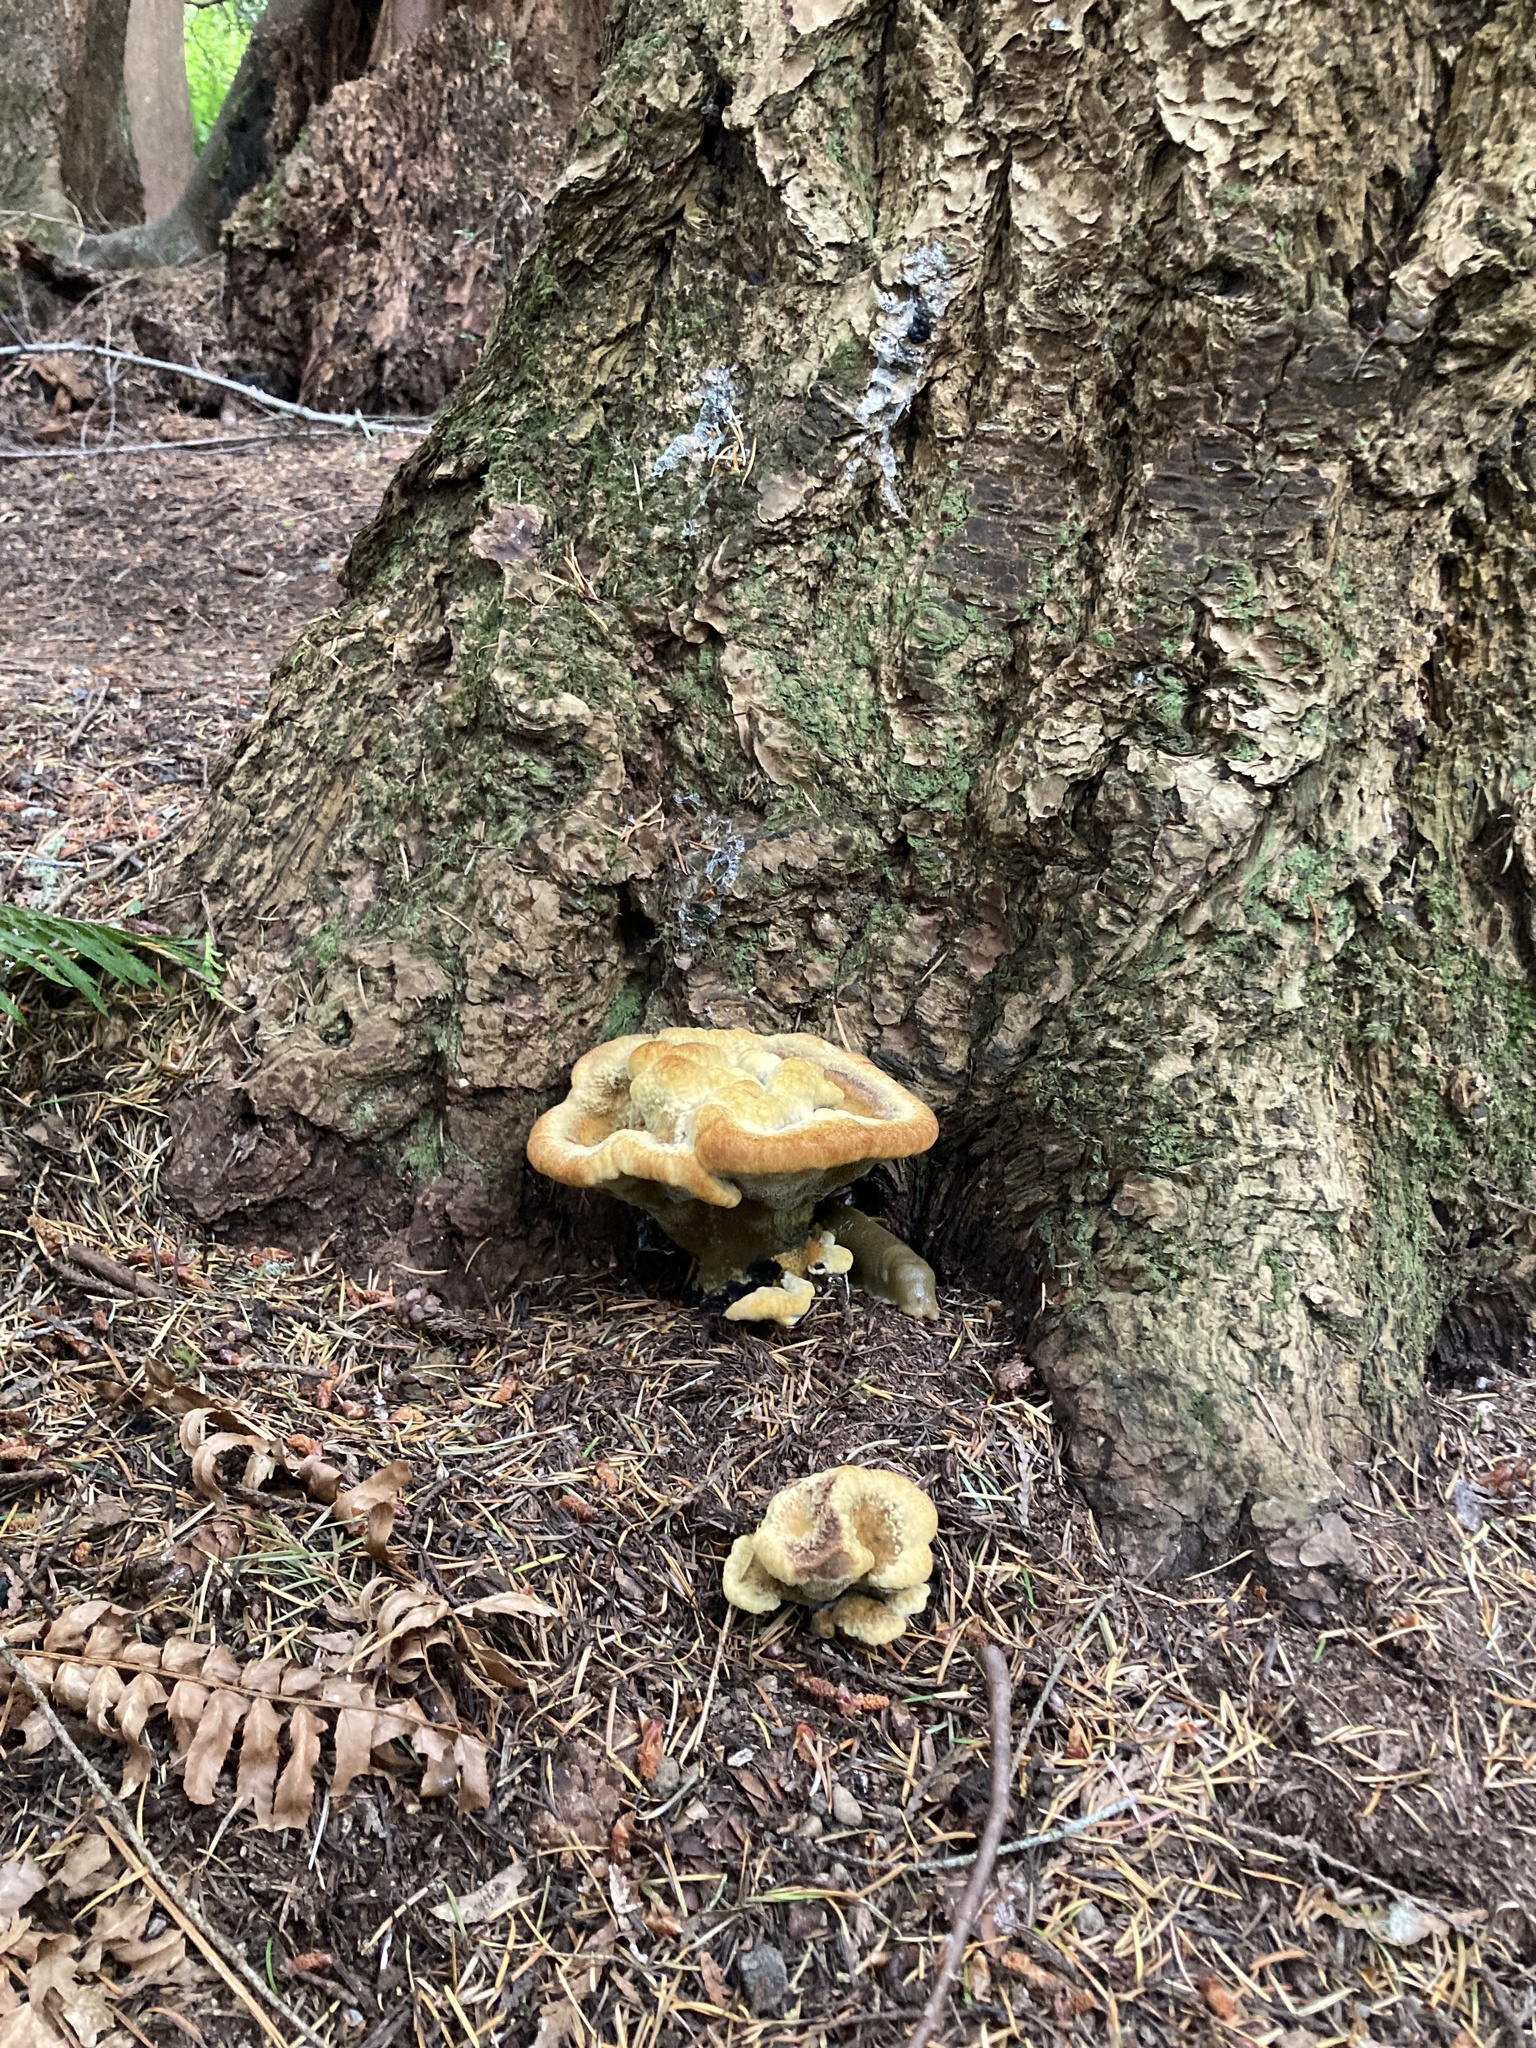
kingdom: Fungi
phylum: Basidiomycota
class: Agaricomycetes
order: Polyporales
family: Laetiporaceae
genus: Phaeolus
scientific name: Phaeolus schweinitzii
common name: Dyer's mazegill
